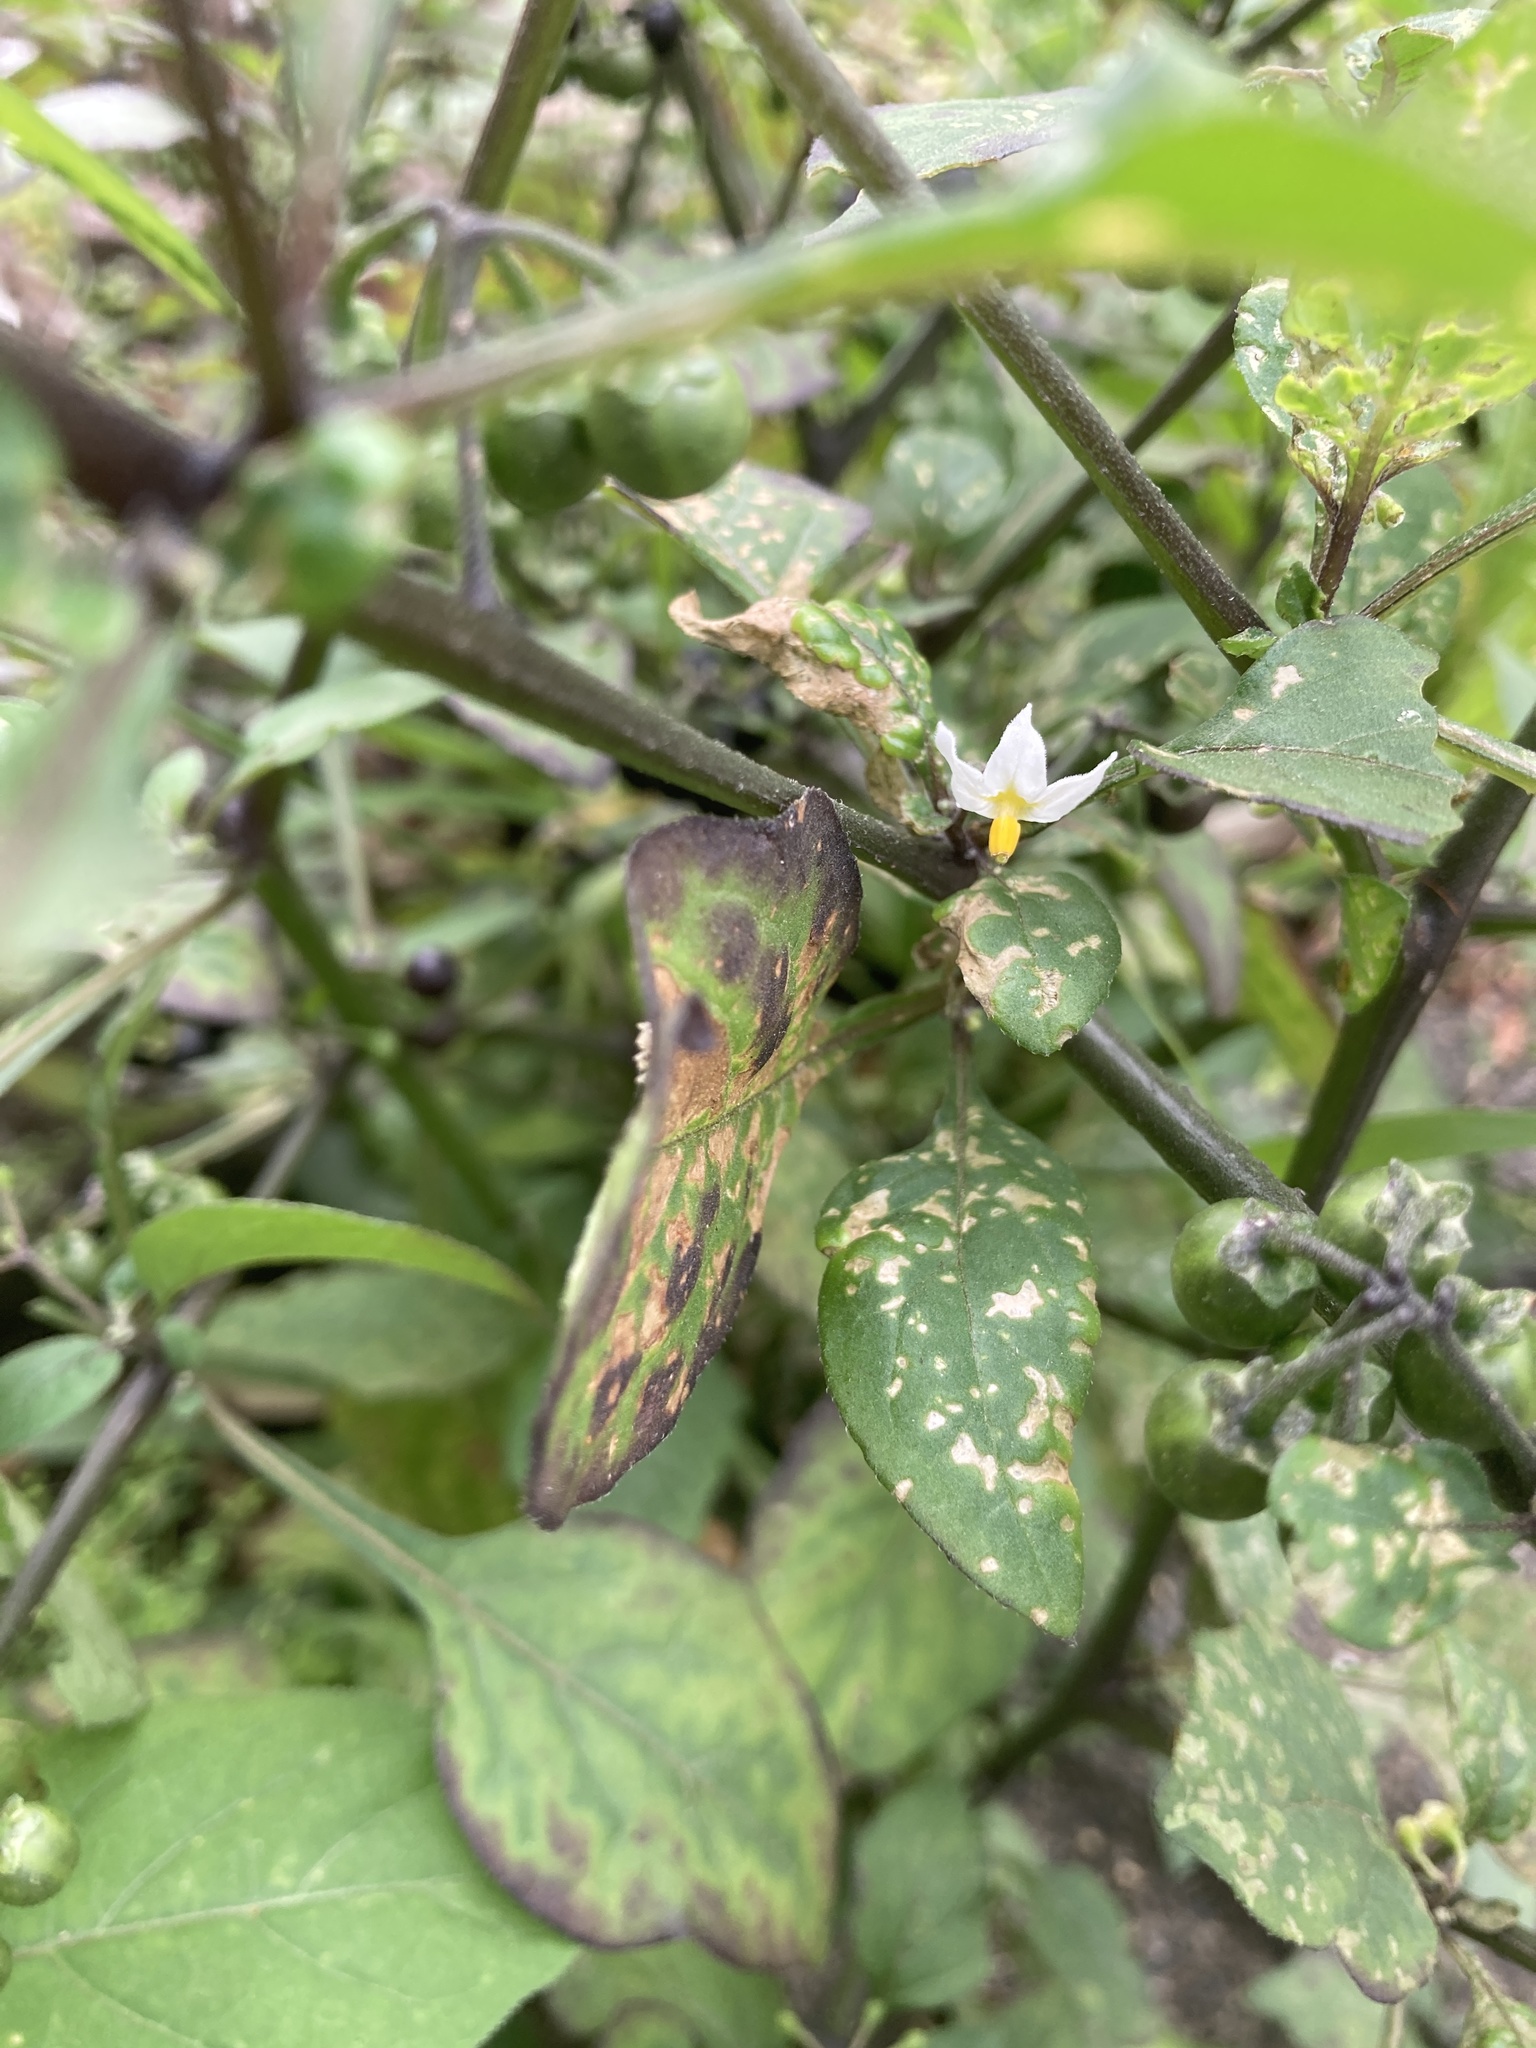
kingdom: Plantae
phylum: Tracheophyta
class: Magnoliopsida
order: Solanales
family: Solanaceae
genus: Solanum
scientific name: Solanum nigrum
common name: Black nightshade
